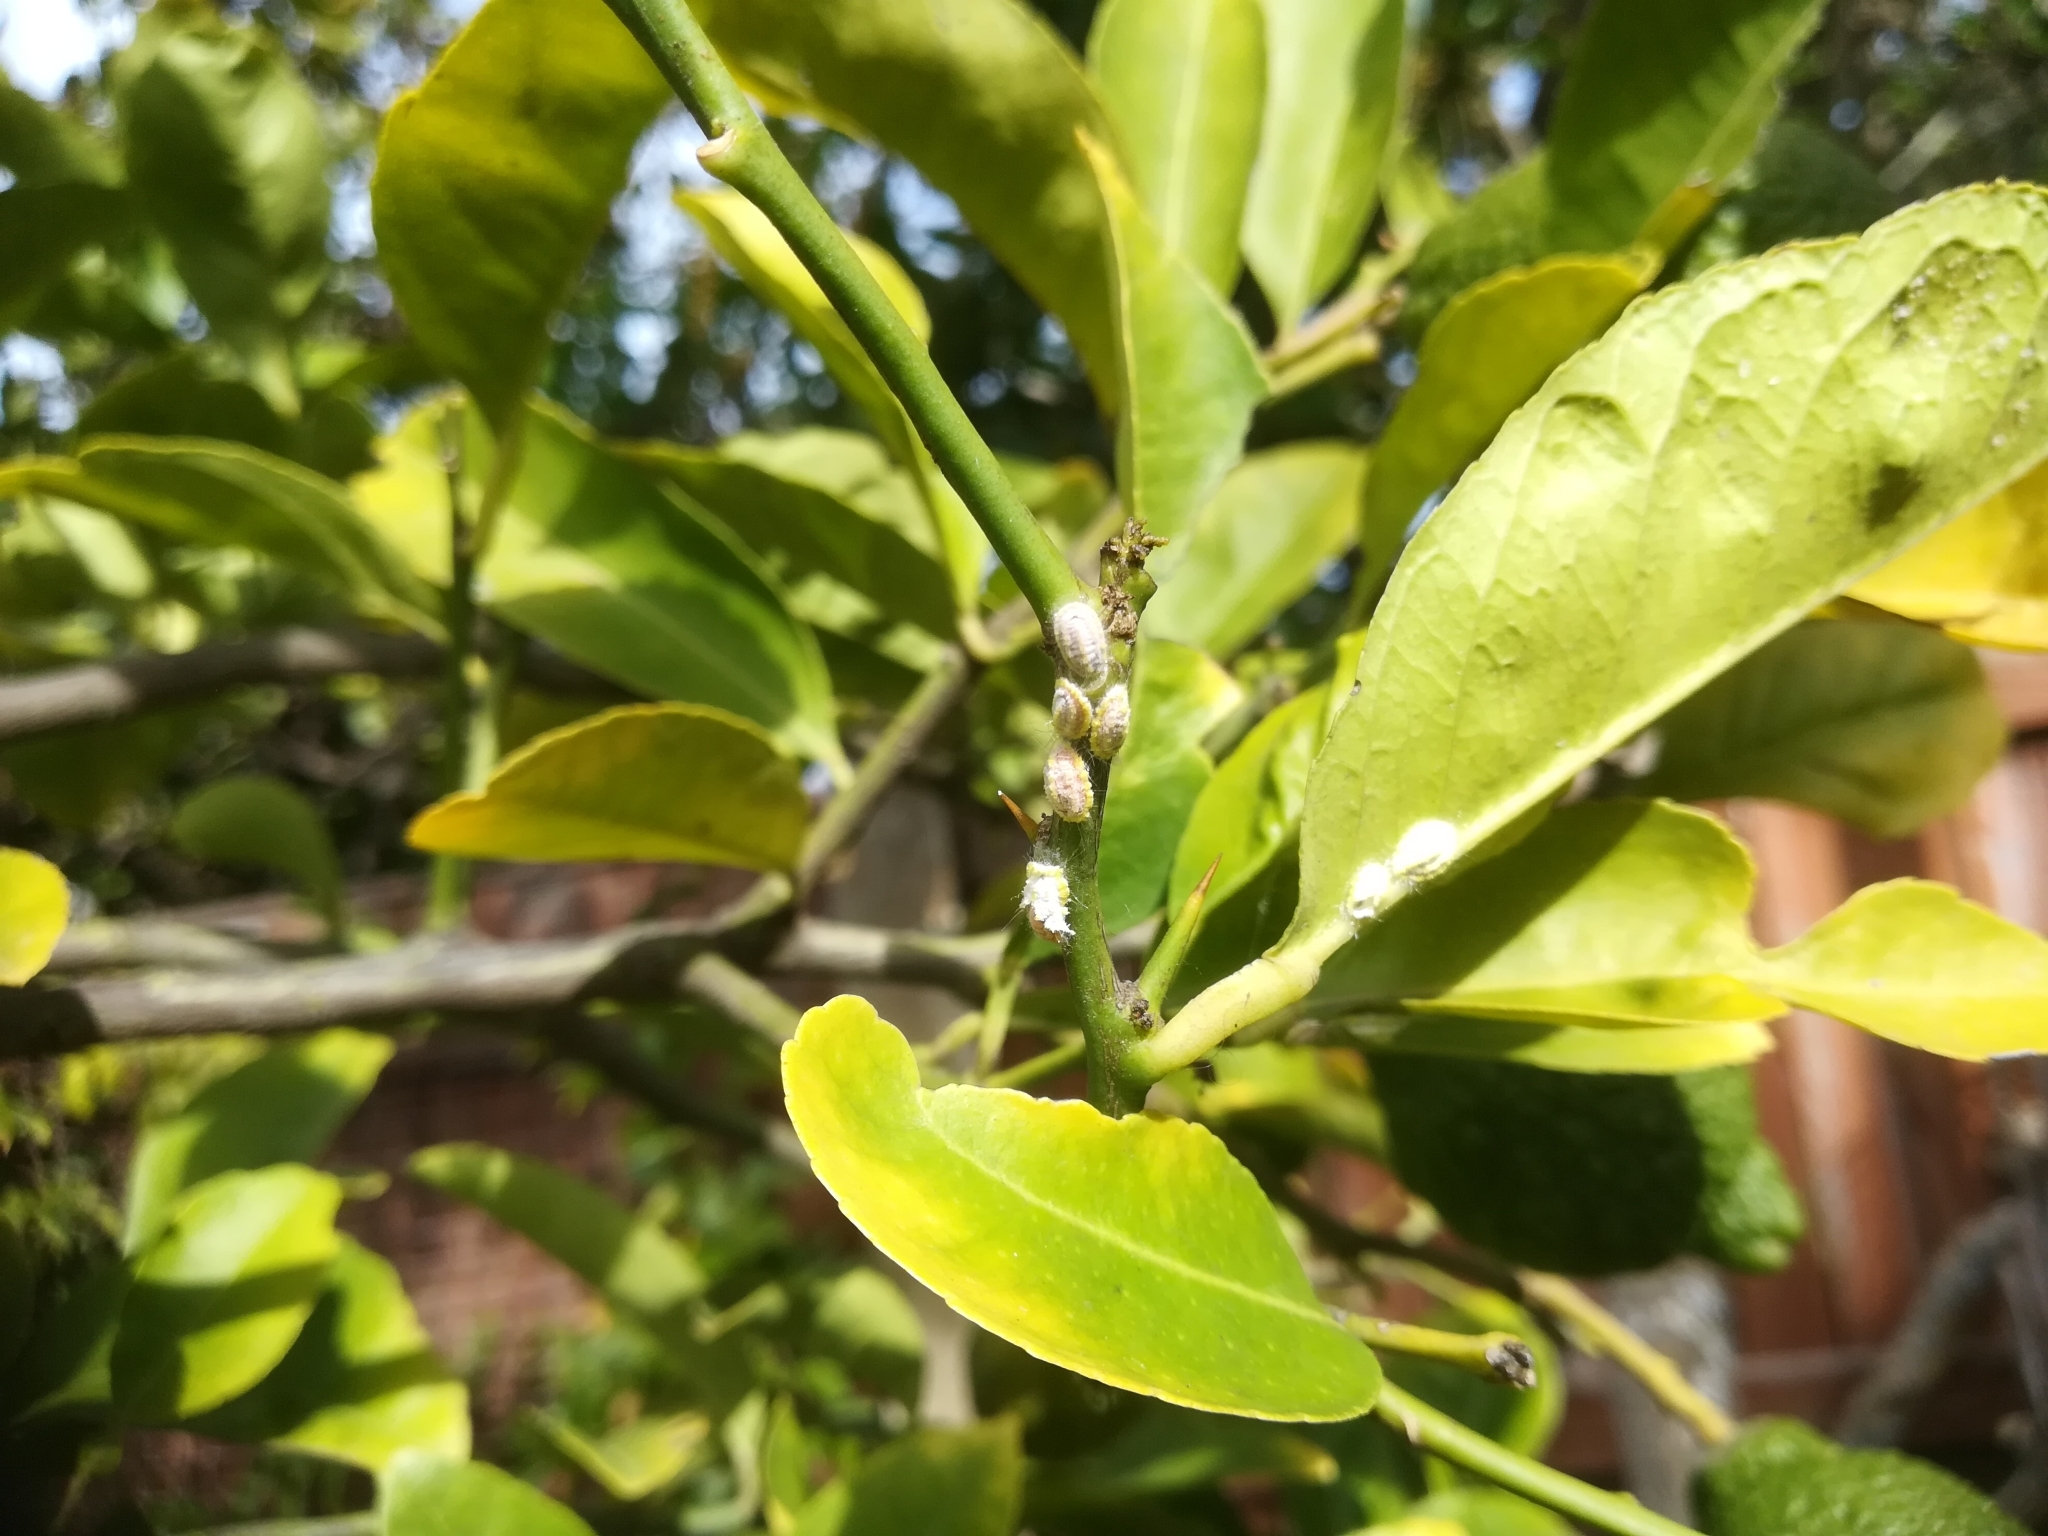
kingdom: Animalia
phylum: Arthropoda
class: Insecta
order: Hemiptera
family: Margarodidae
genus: Icerya
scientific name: Icerya seychellarum
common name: Iceplant scale
